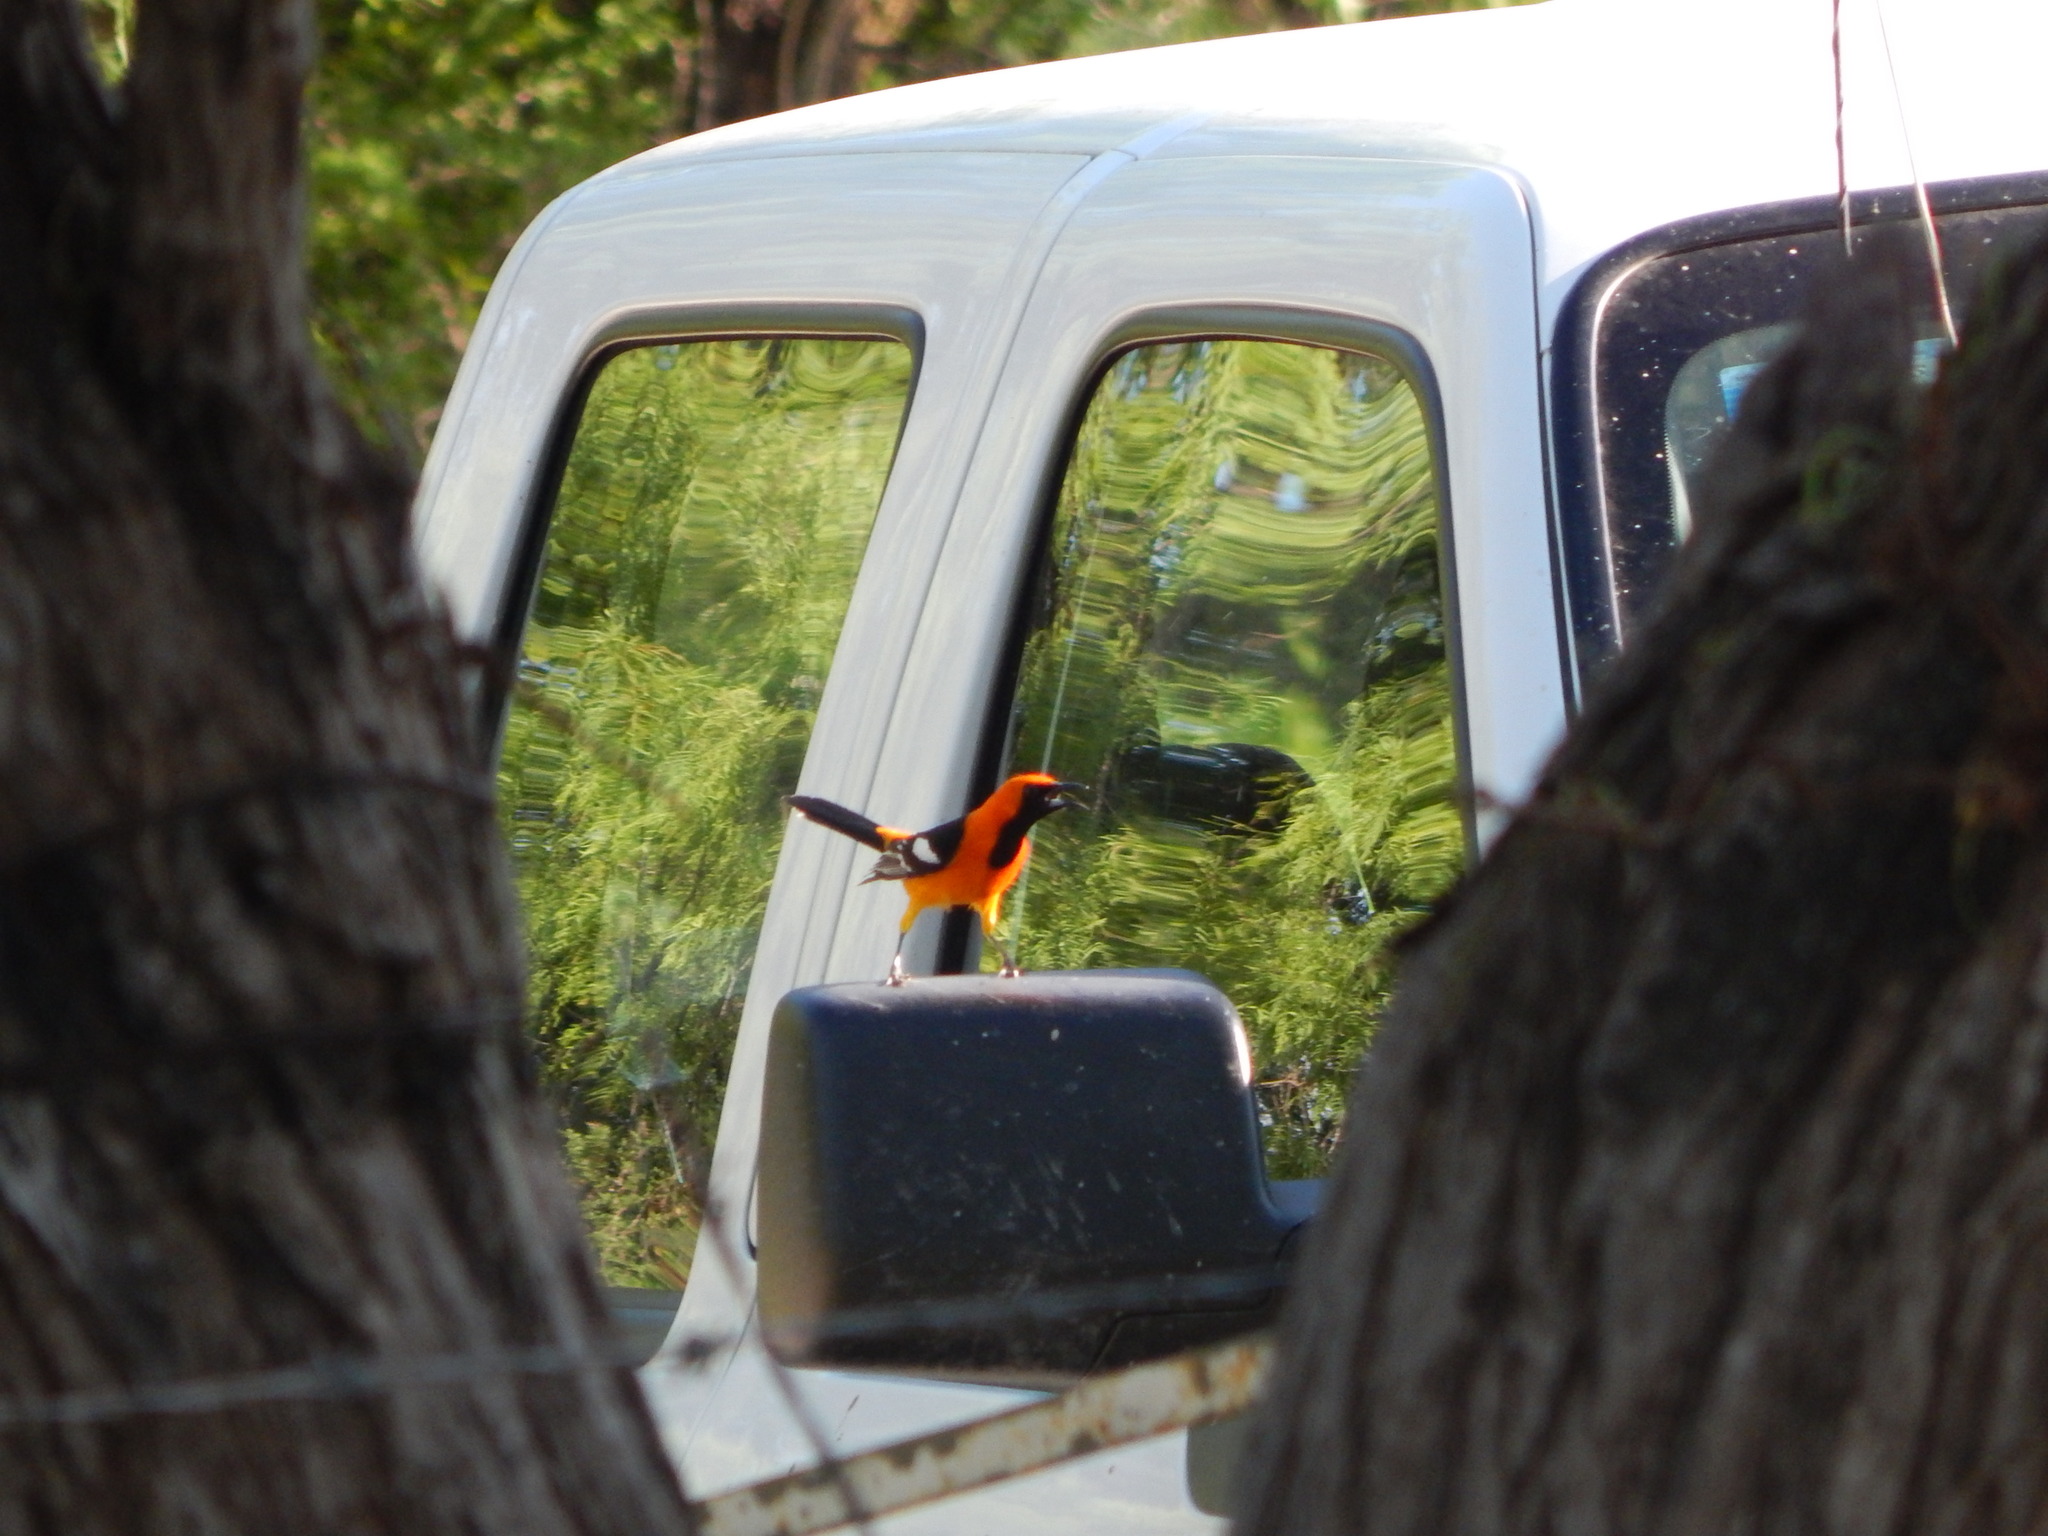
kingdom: Animalia
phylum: Chordata
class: Aves
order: Passeriformes
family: Icteridae
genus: Icterus
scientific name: Icterus cucullatus
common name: Hooded oriole
